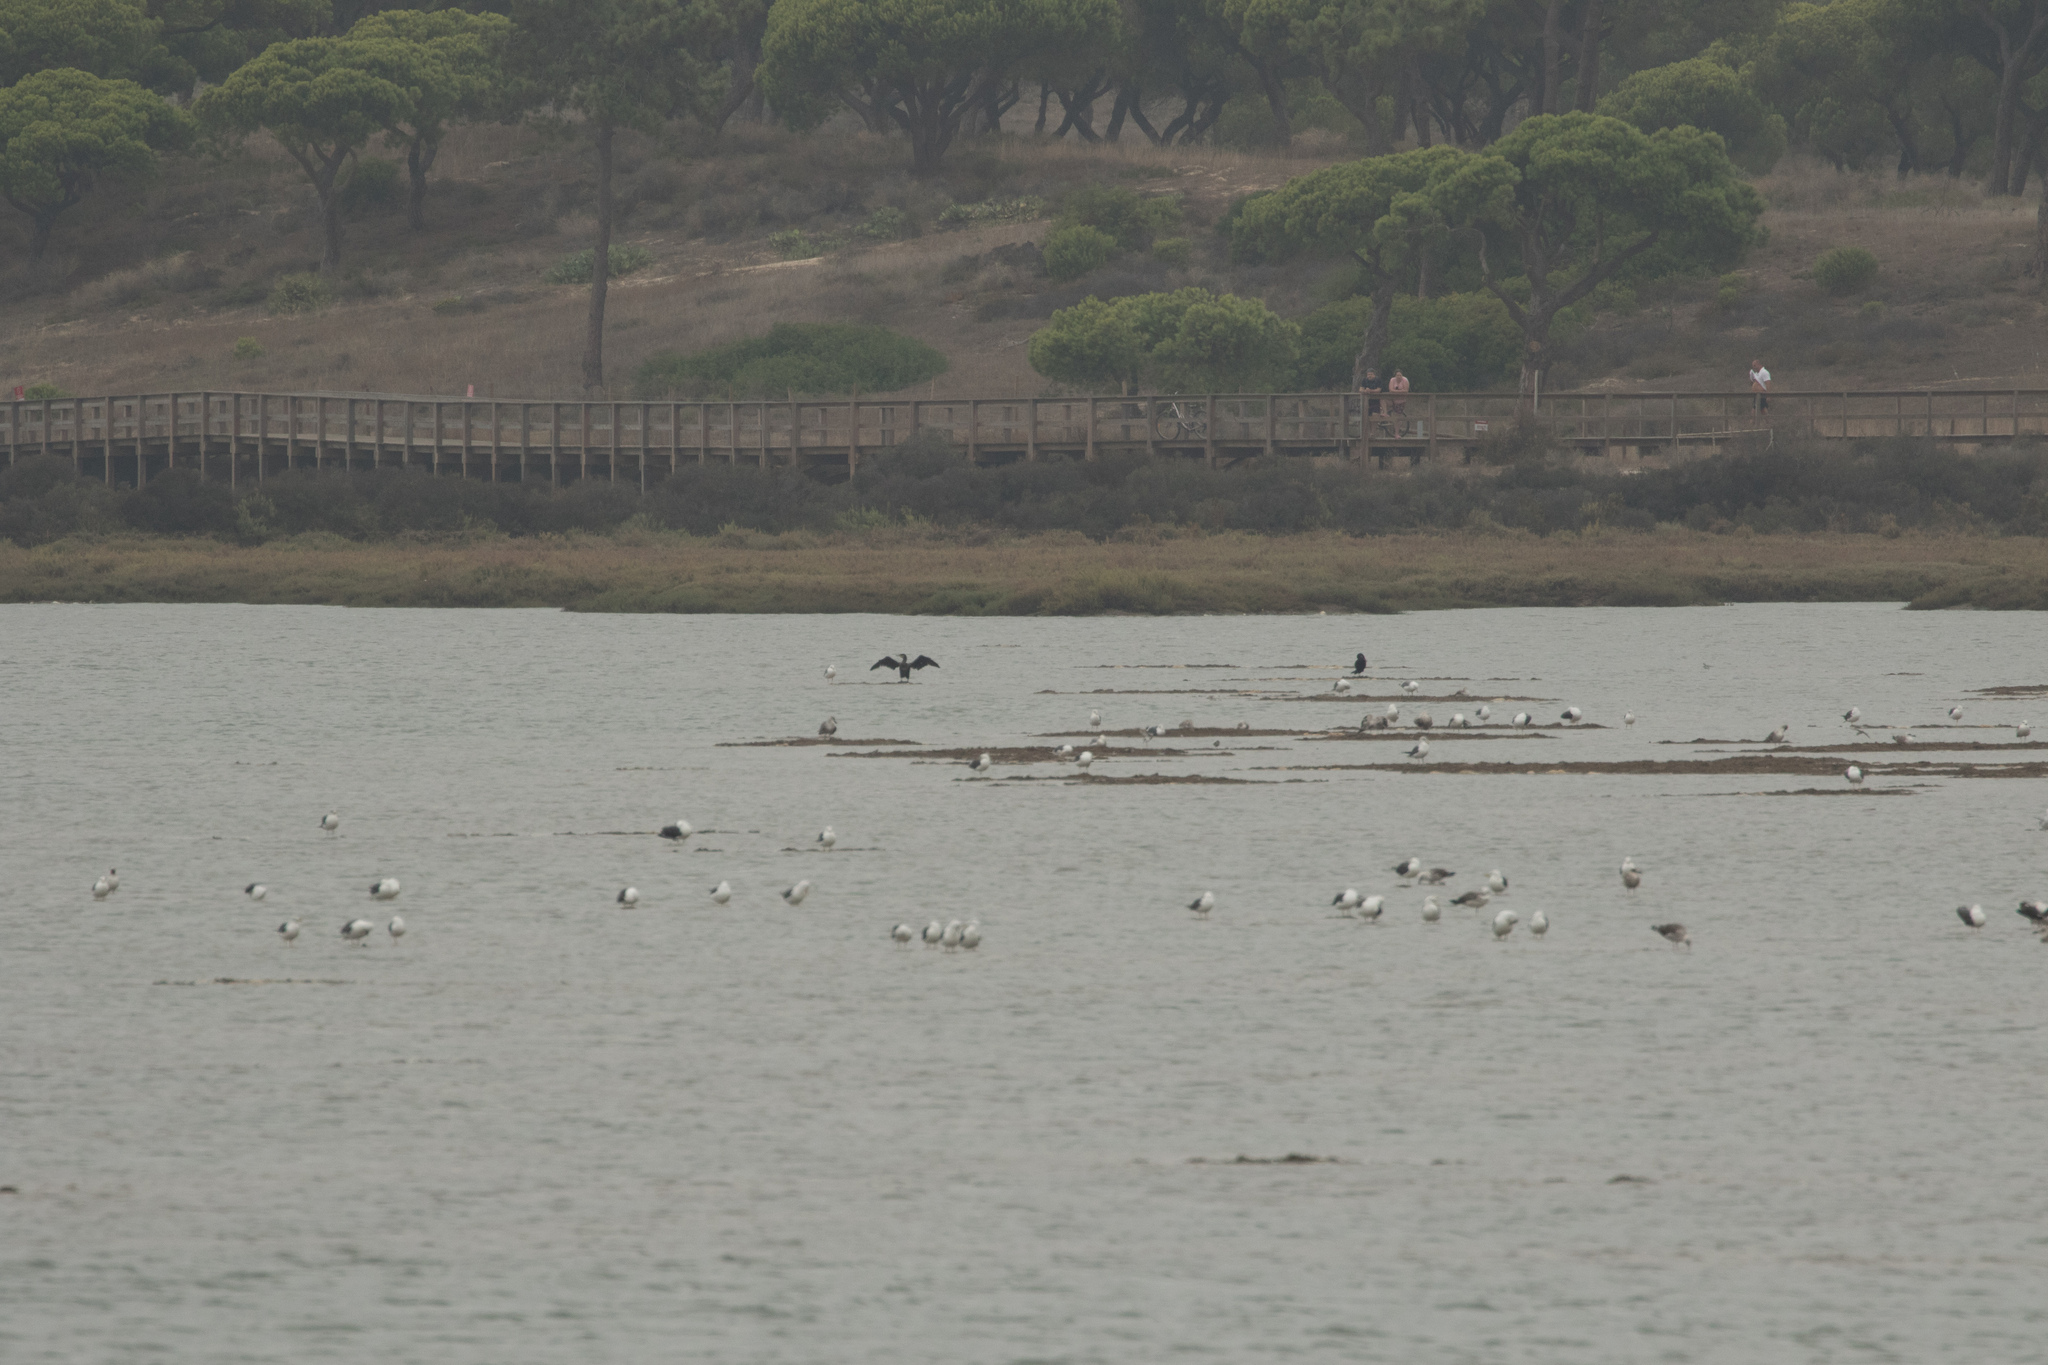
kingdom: Animalia
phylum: Chordata
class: Aves
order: Suliformes
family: Phalacrocoracidae
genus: Phalacrocorax
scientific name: Phalacrocorax carbo
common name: Great cormorant
